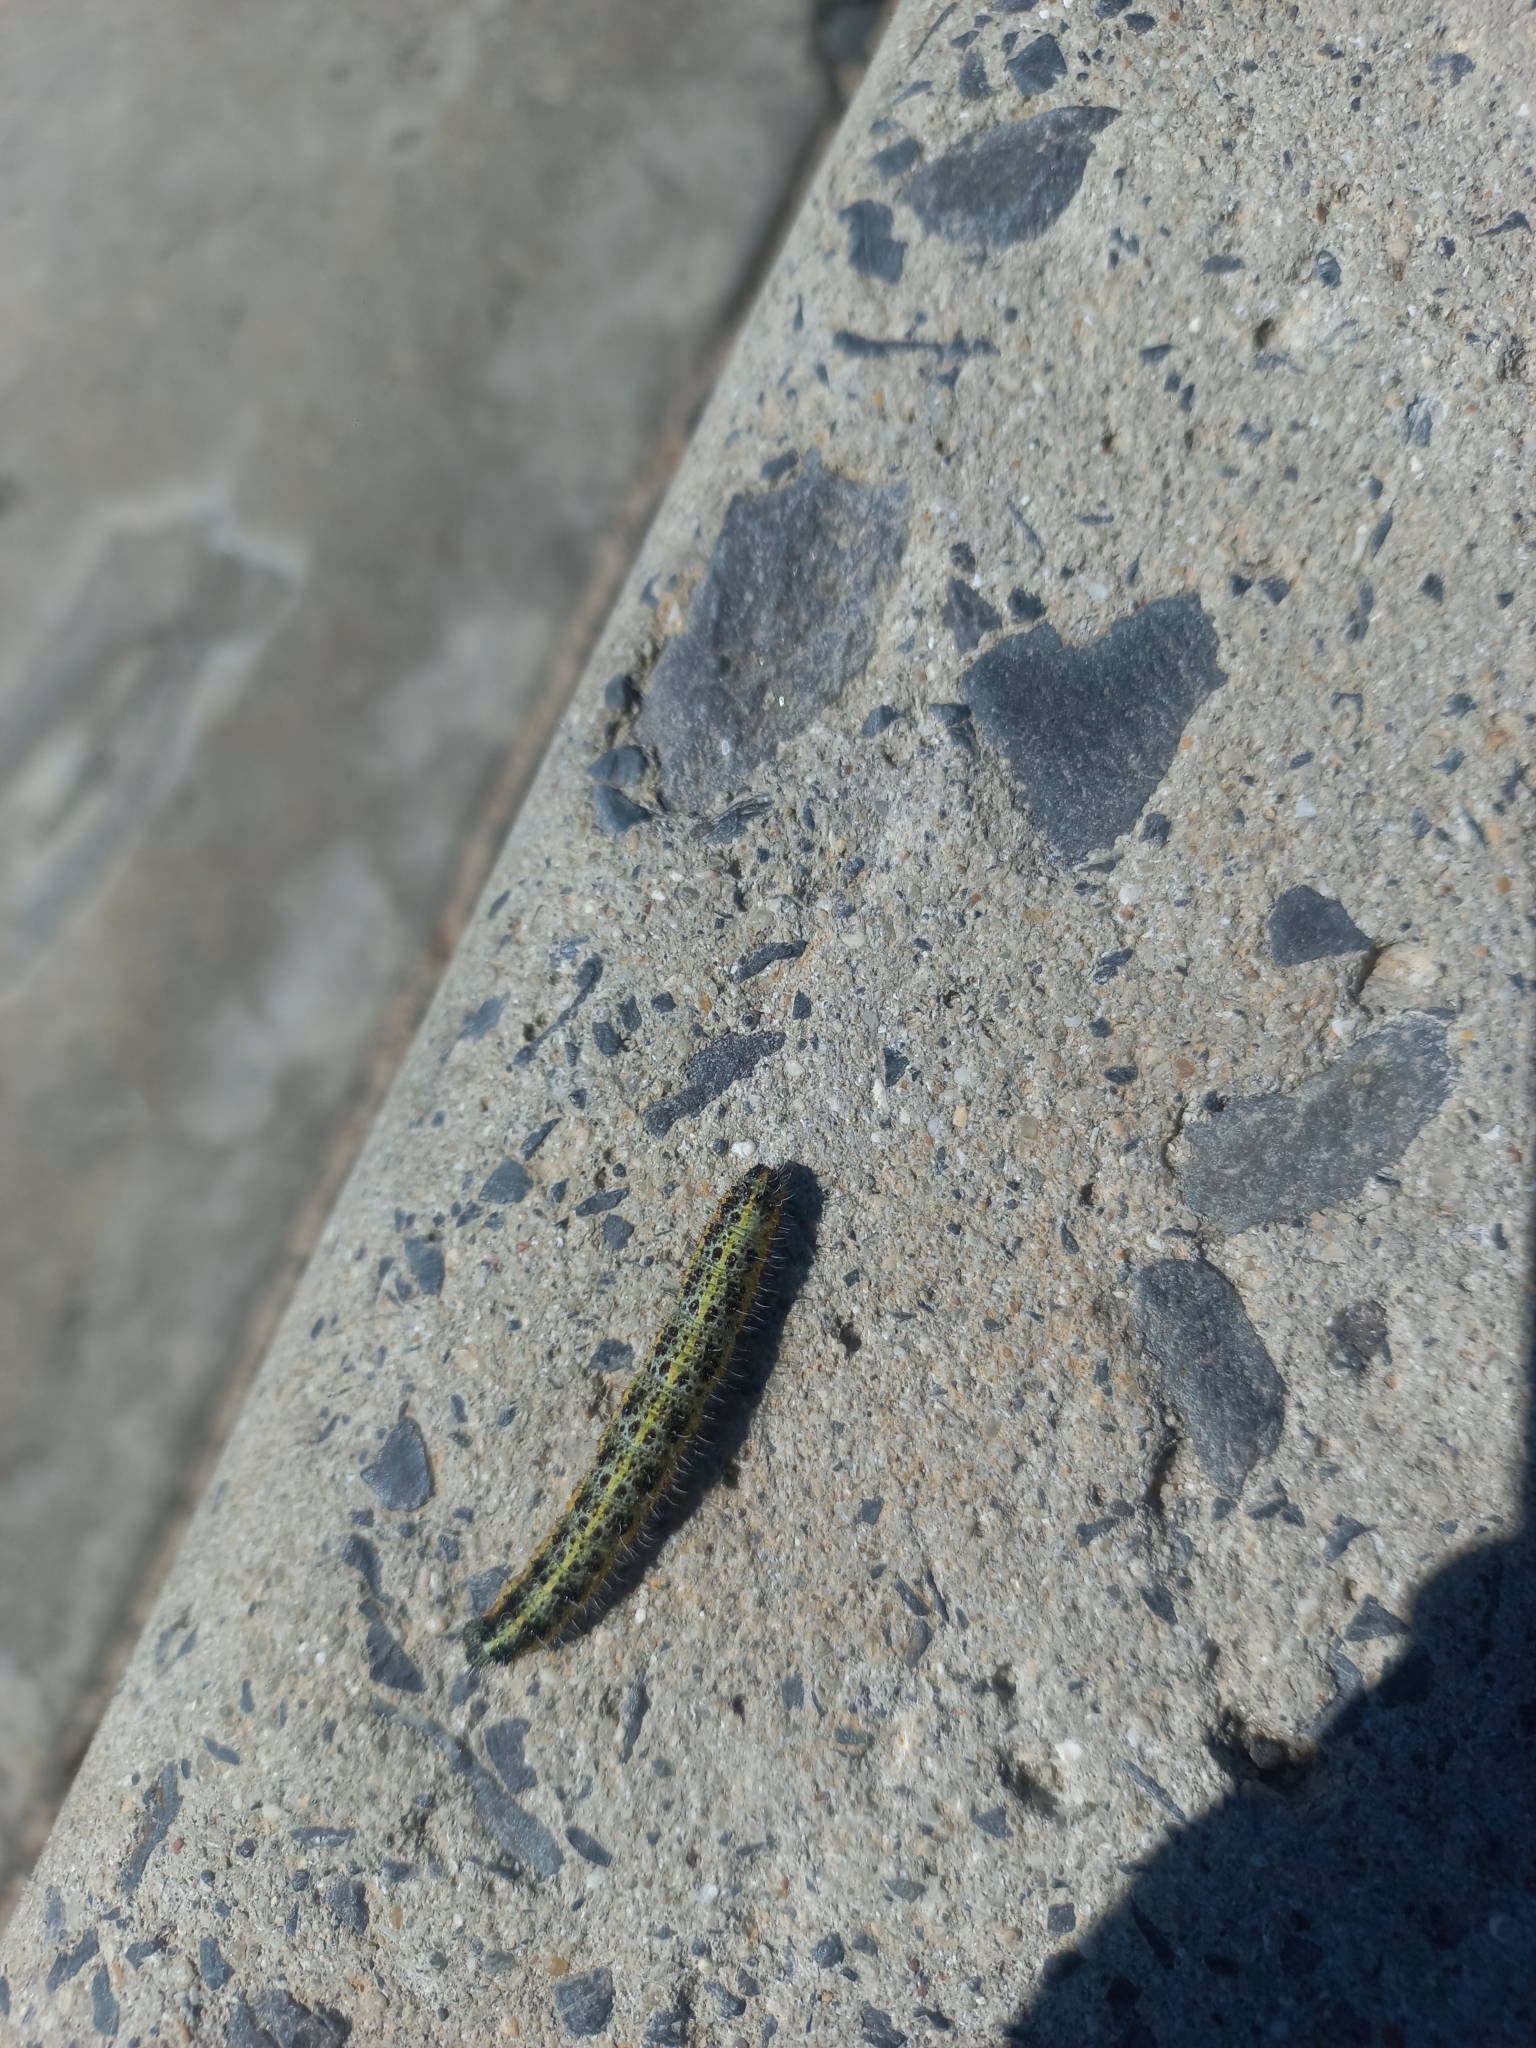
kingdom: Animalia
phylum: Arthropoda
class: Insecta
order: Lepidoptera
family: Pieridae
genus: Pieris
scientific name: Pieris brassicae
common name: Large white
